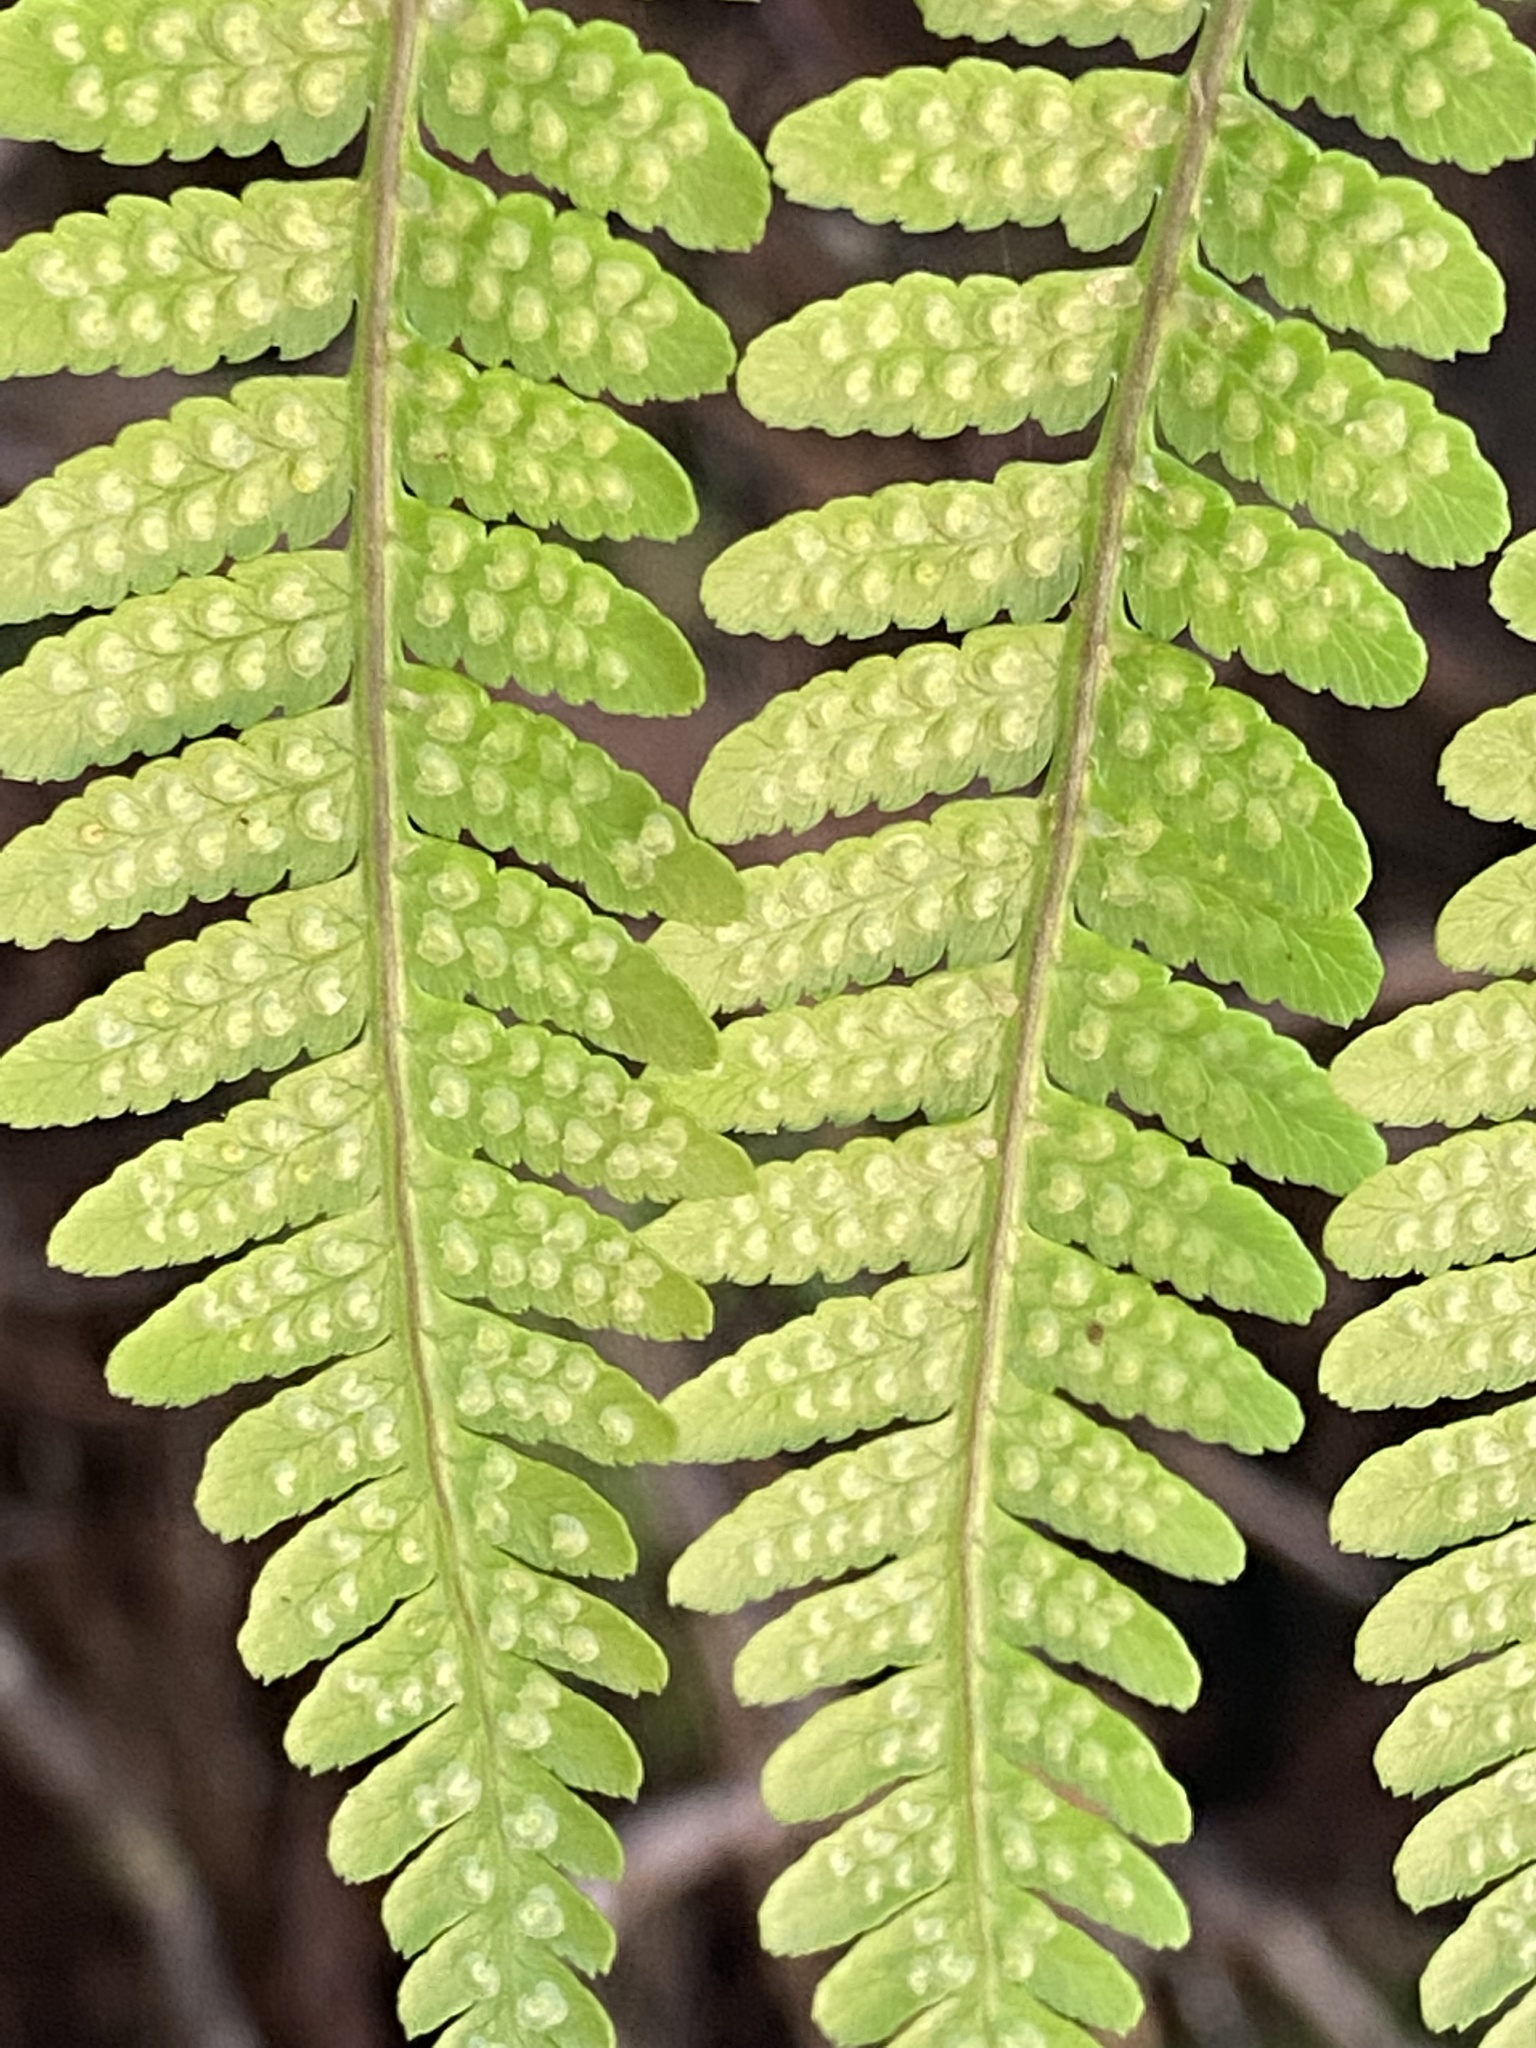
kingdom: Plantae
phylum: Tracheophyta
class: Polypodiopsida
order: Polypodiales
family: Dryopteridaceae
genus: Dryopteris
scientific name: Dryopteris oligodonta
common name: Canarian male-fern
